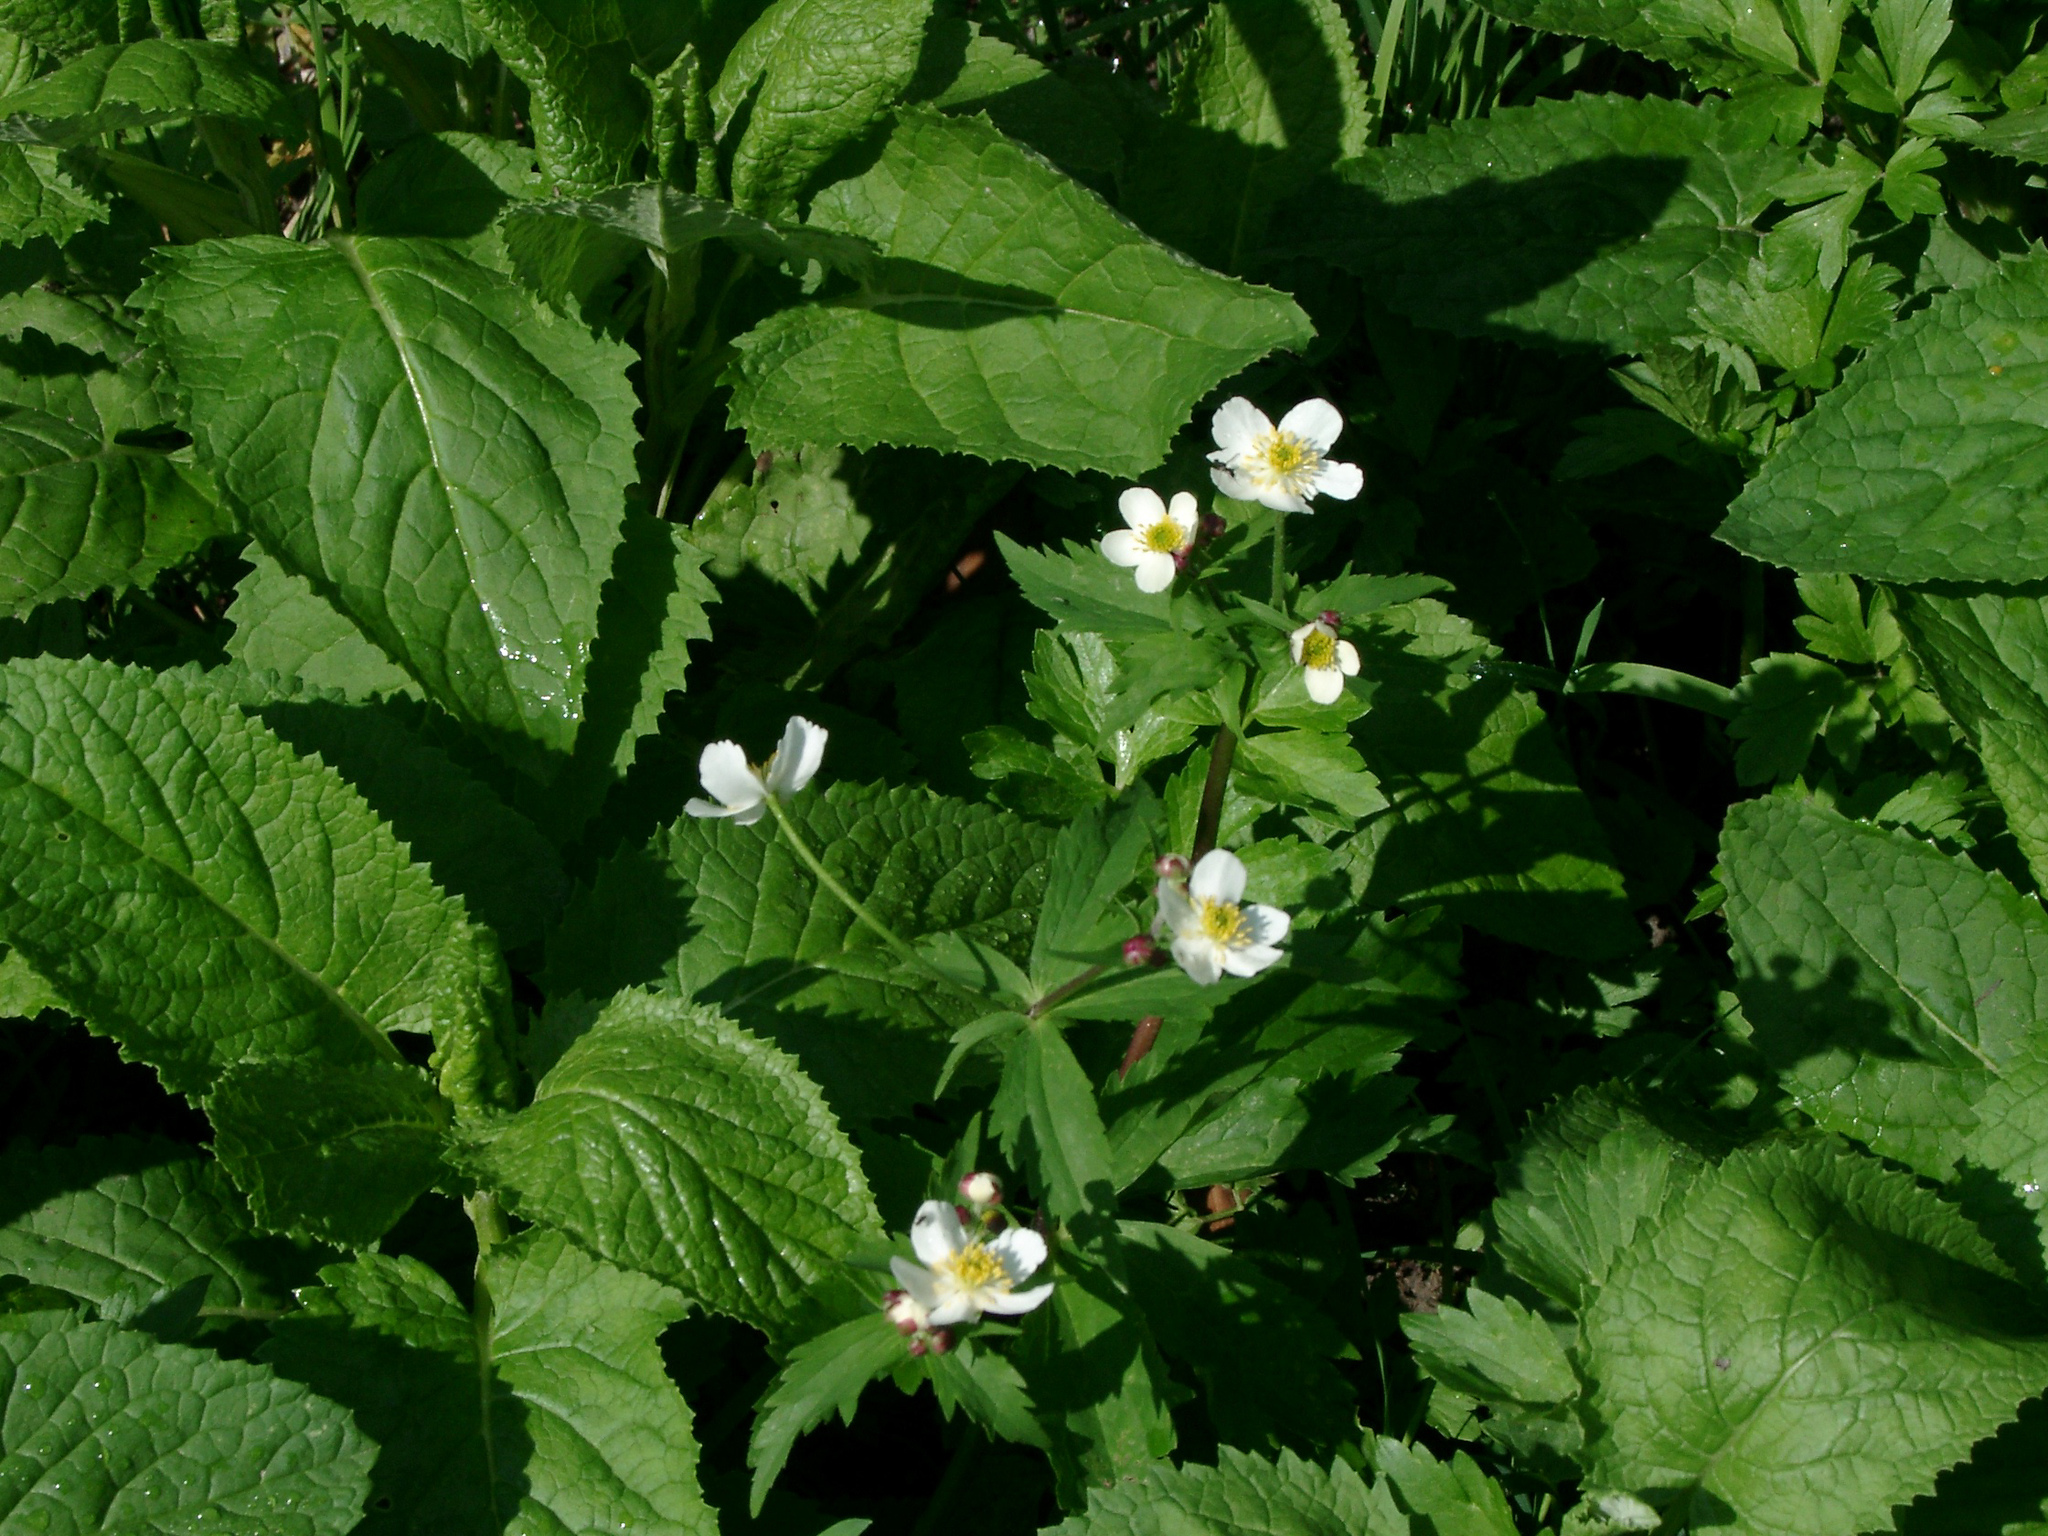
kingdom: Plantae
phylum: Tracheophyta
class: Magnoliopsida
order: Ranunculales
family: Ranunculaceae
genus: Ranunculus
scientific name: Ranunculus aconitifolius
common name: Aconite-leaved buttercup
